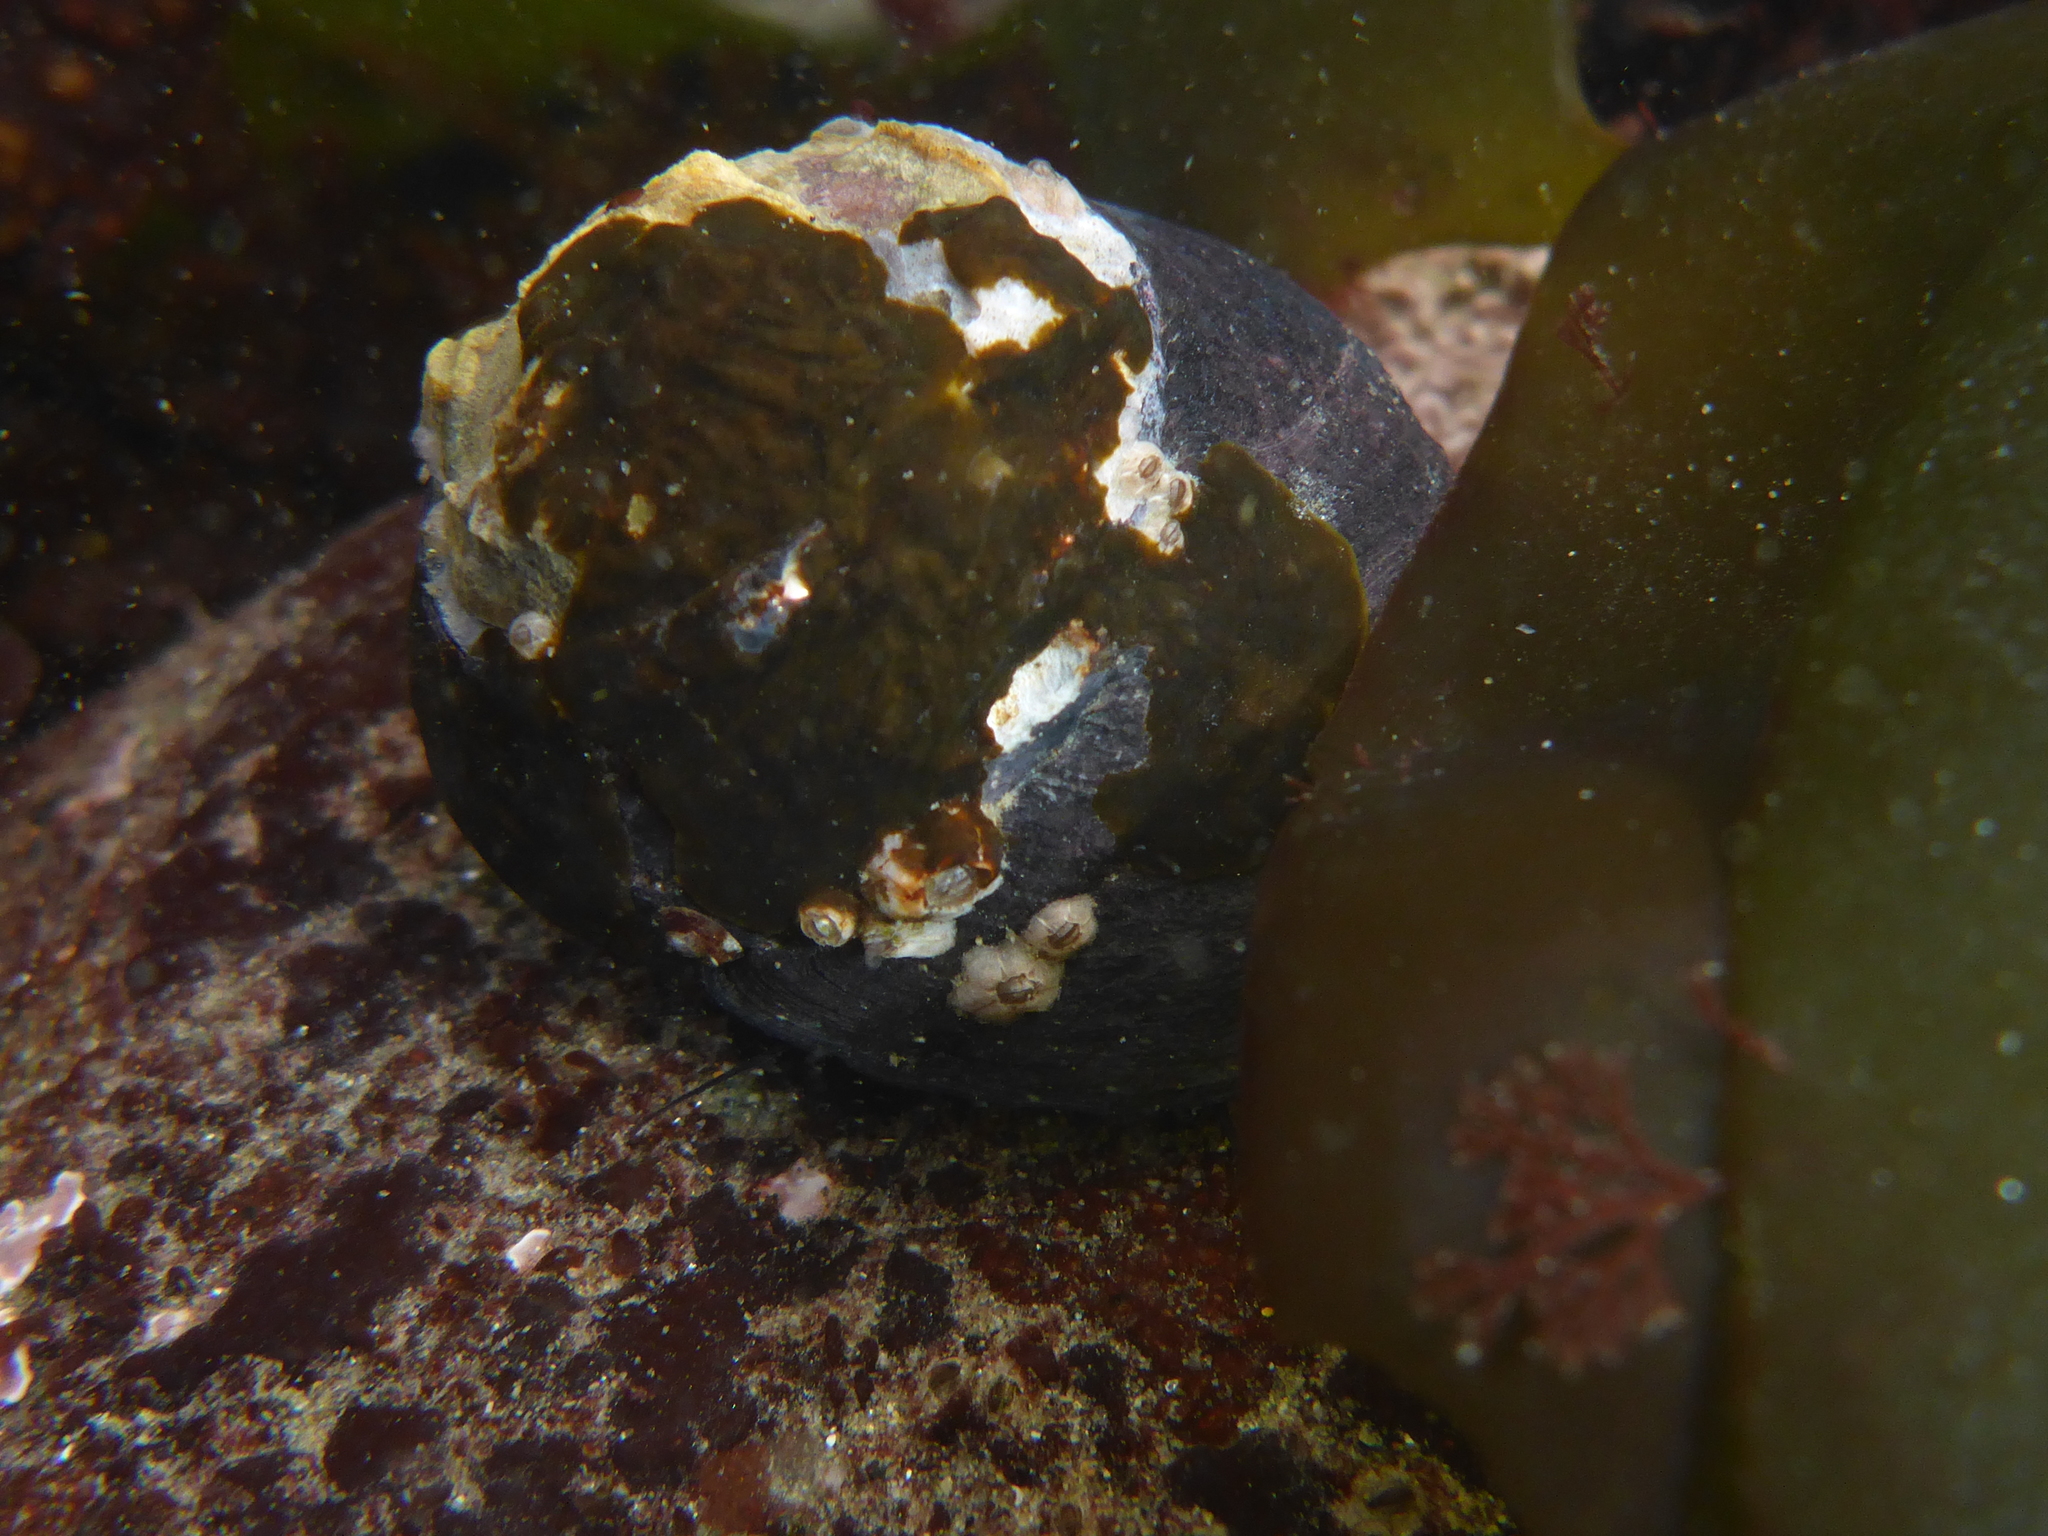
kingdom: Animalia
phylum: Mollusca
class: Gastropoda
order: Trochida
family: Tegulidae
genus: Tegula
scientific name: Tegula funebralis
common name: Black tegula
